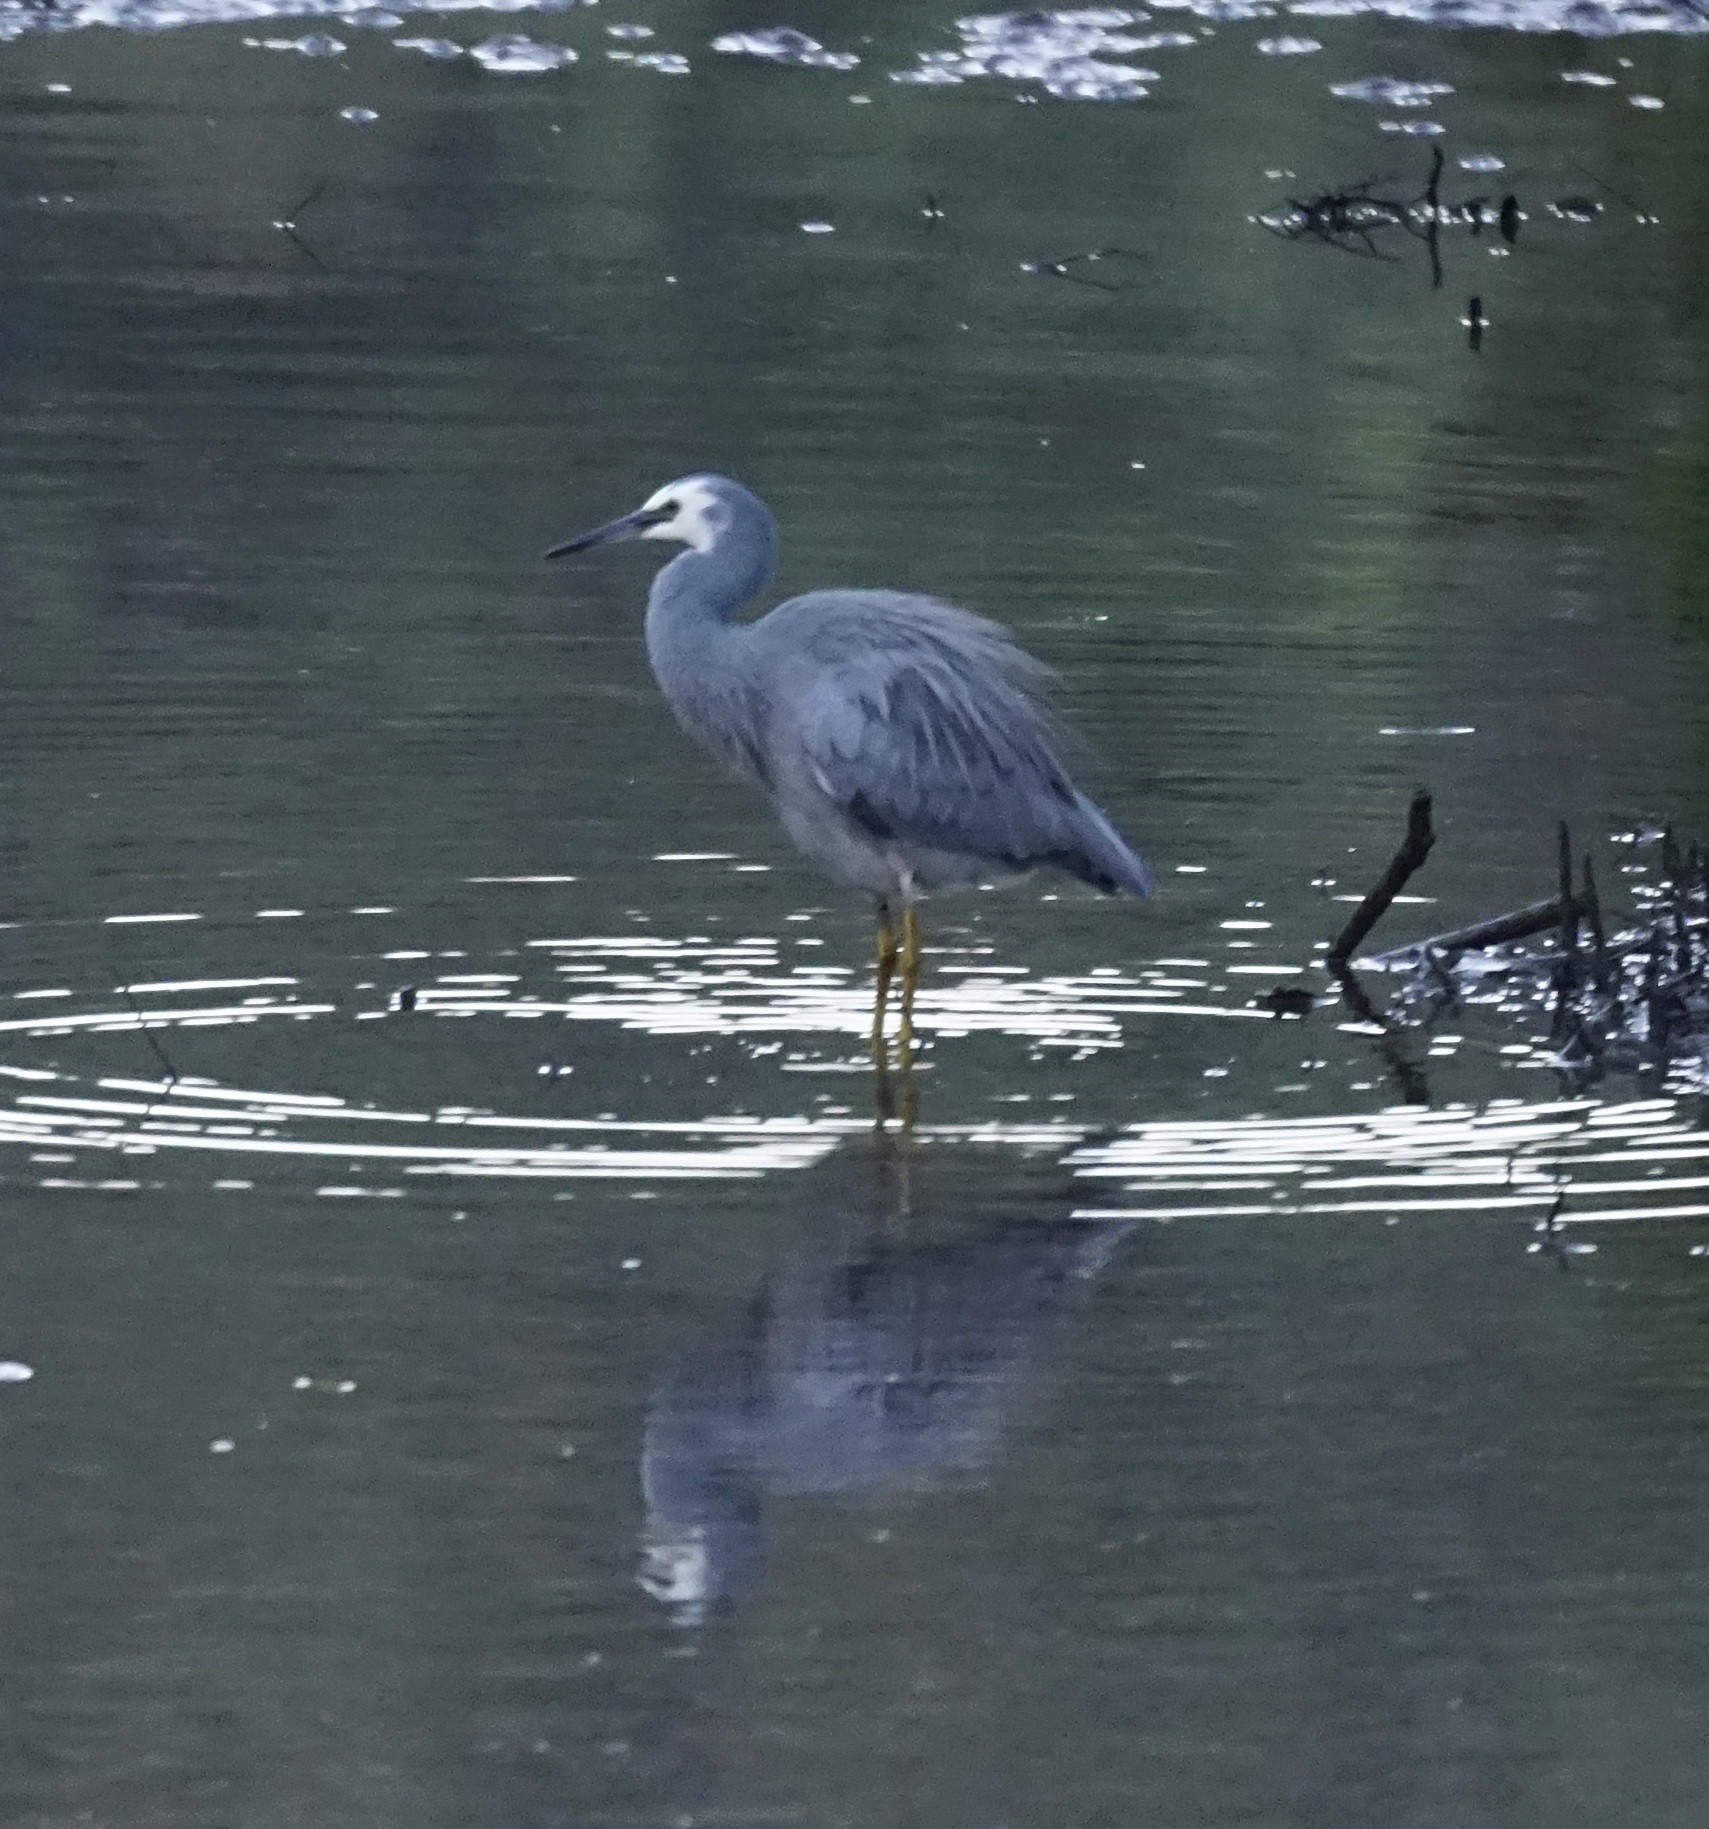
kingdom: Animalia
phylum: Chordata
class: Aves
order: Pelecaniformes
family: Ardeidae
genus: Egretta
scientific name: Egretta novaehollandiae
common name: White-faced heron
